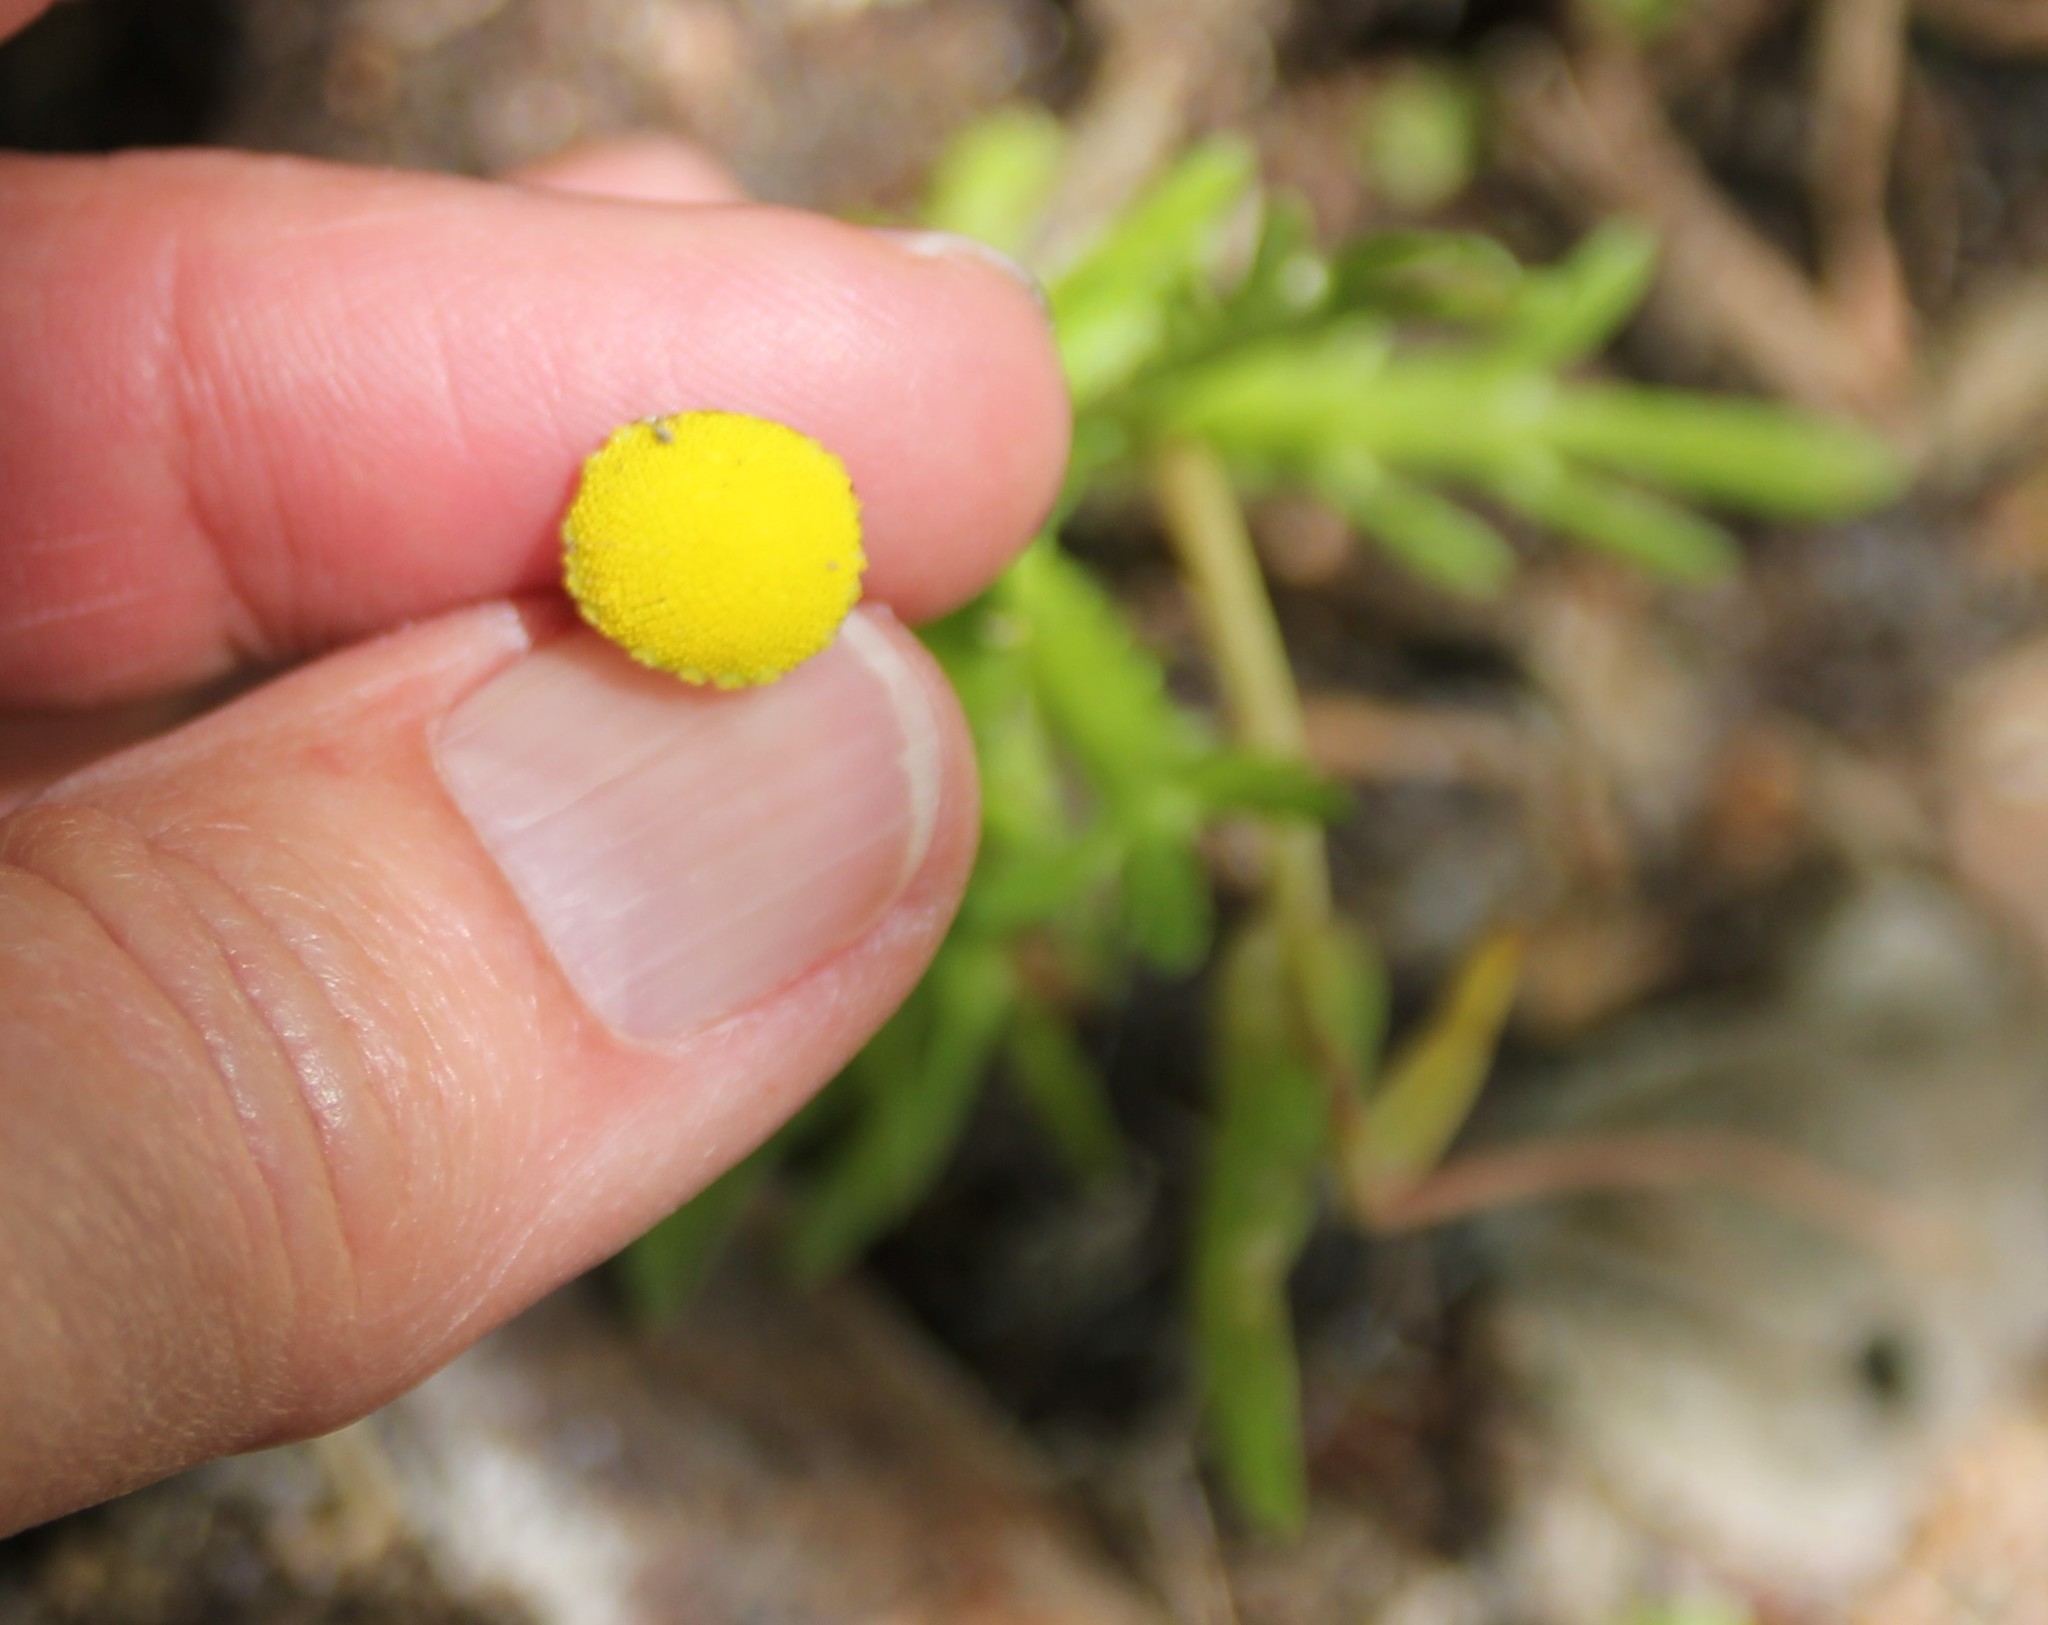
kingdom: Plantae
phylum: Tracheophyta
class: Magnoliopsida
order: Asterales
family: Asteraceae
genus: Cotula
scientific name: Cotula coronopifolia
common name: Buttonweed
